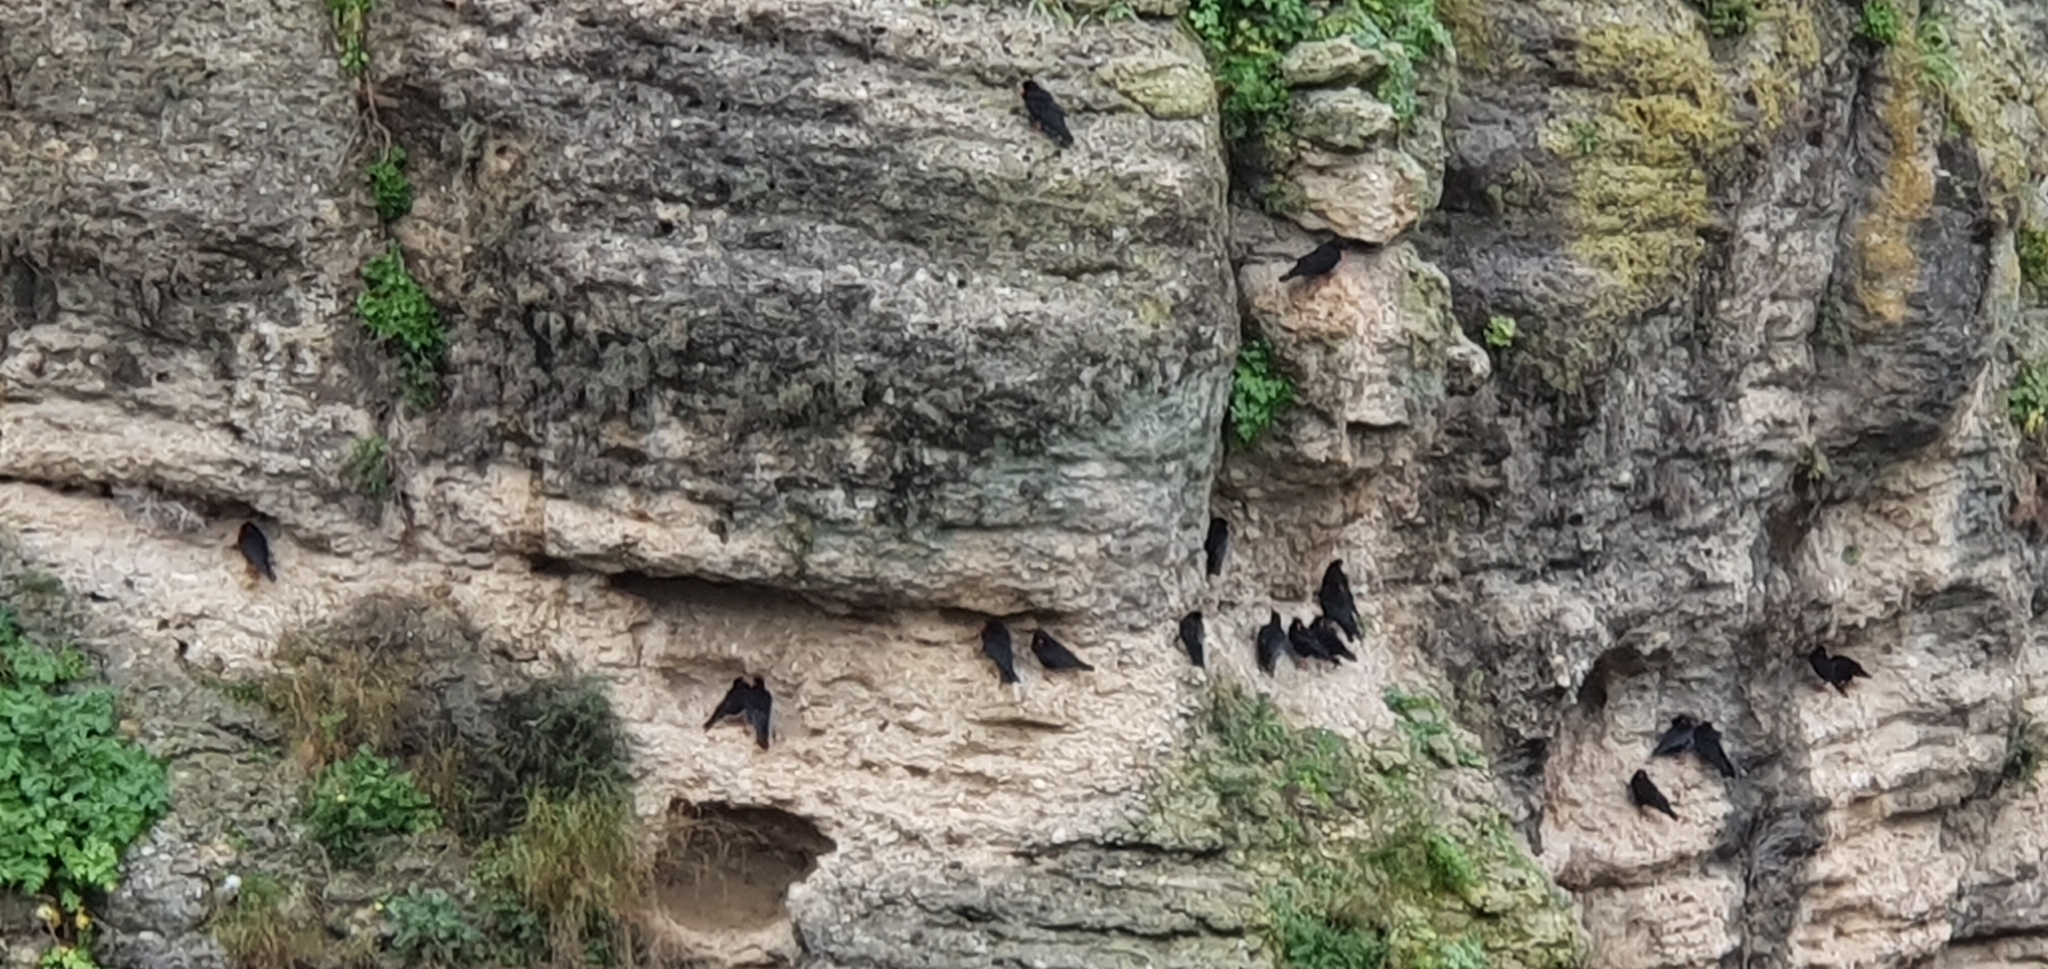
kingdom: Animalia
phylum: Chordata
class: Aves
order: Passeriformes
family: Corvidae
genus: Pyrrhocorax
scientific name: Pyrrhocorax pyrrhocorax
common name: Red-billed chough
